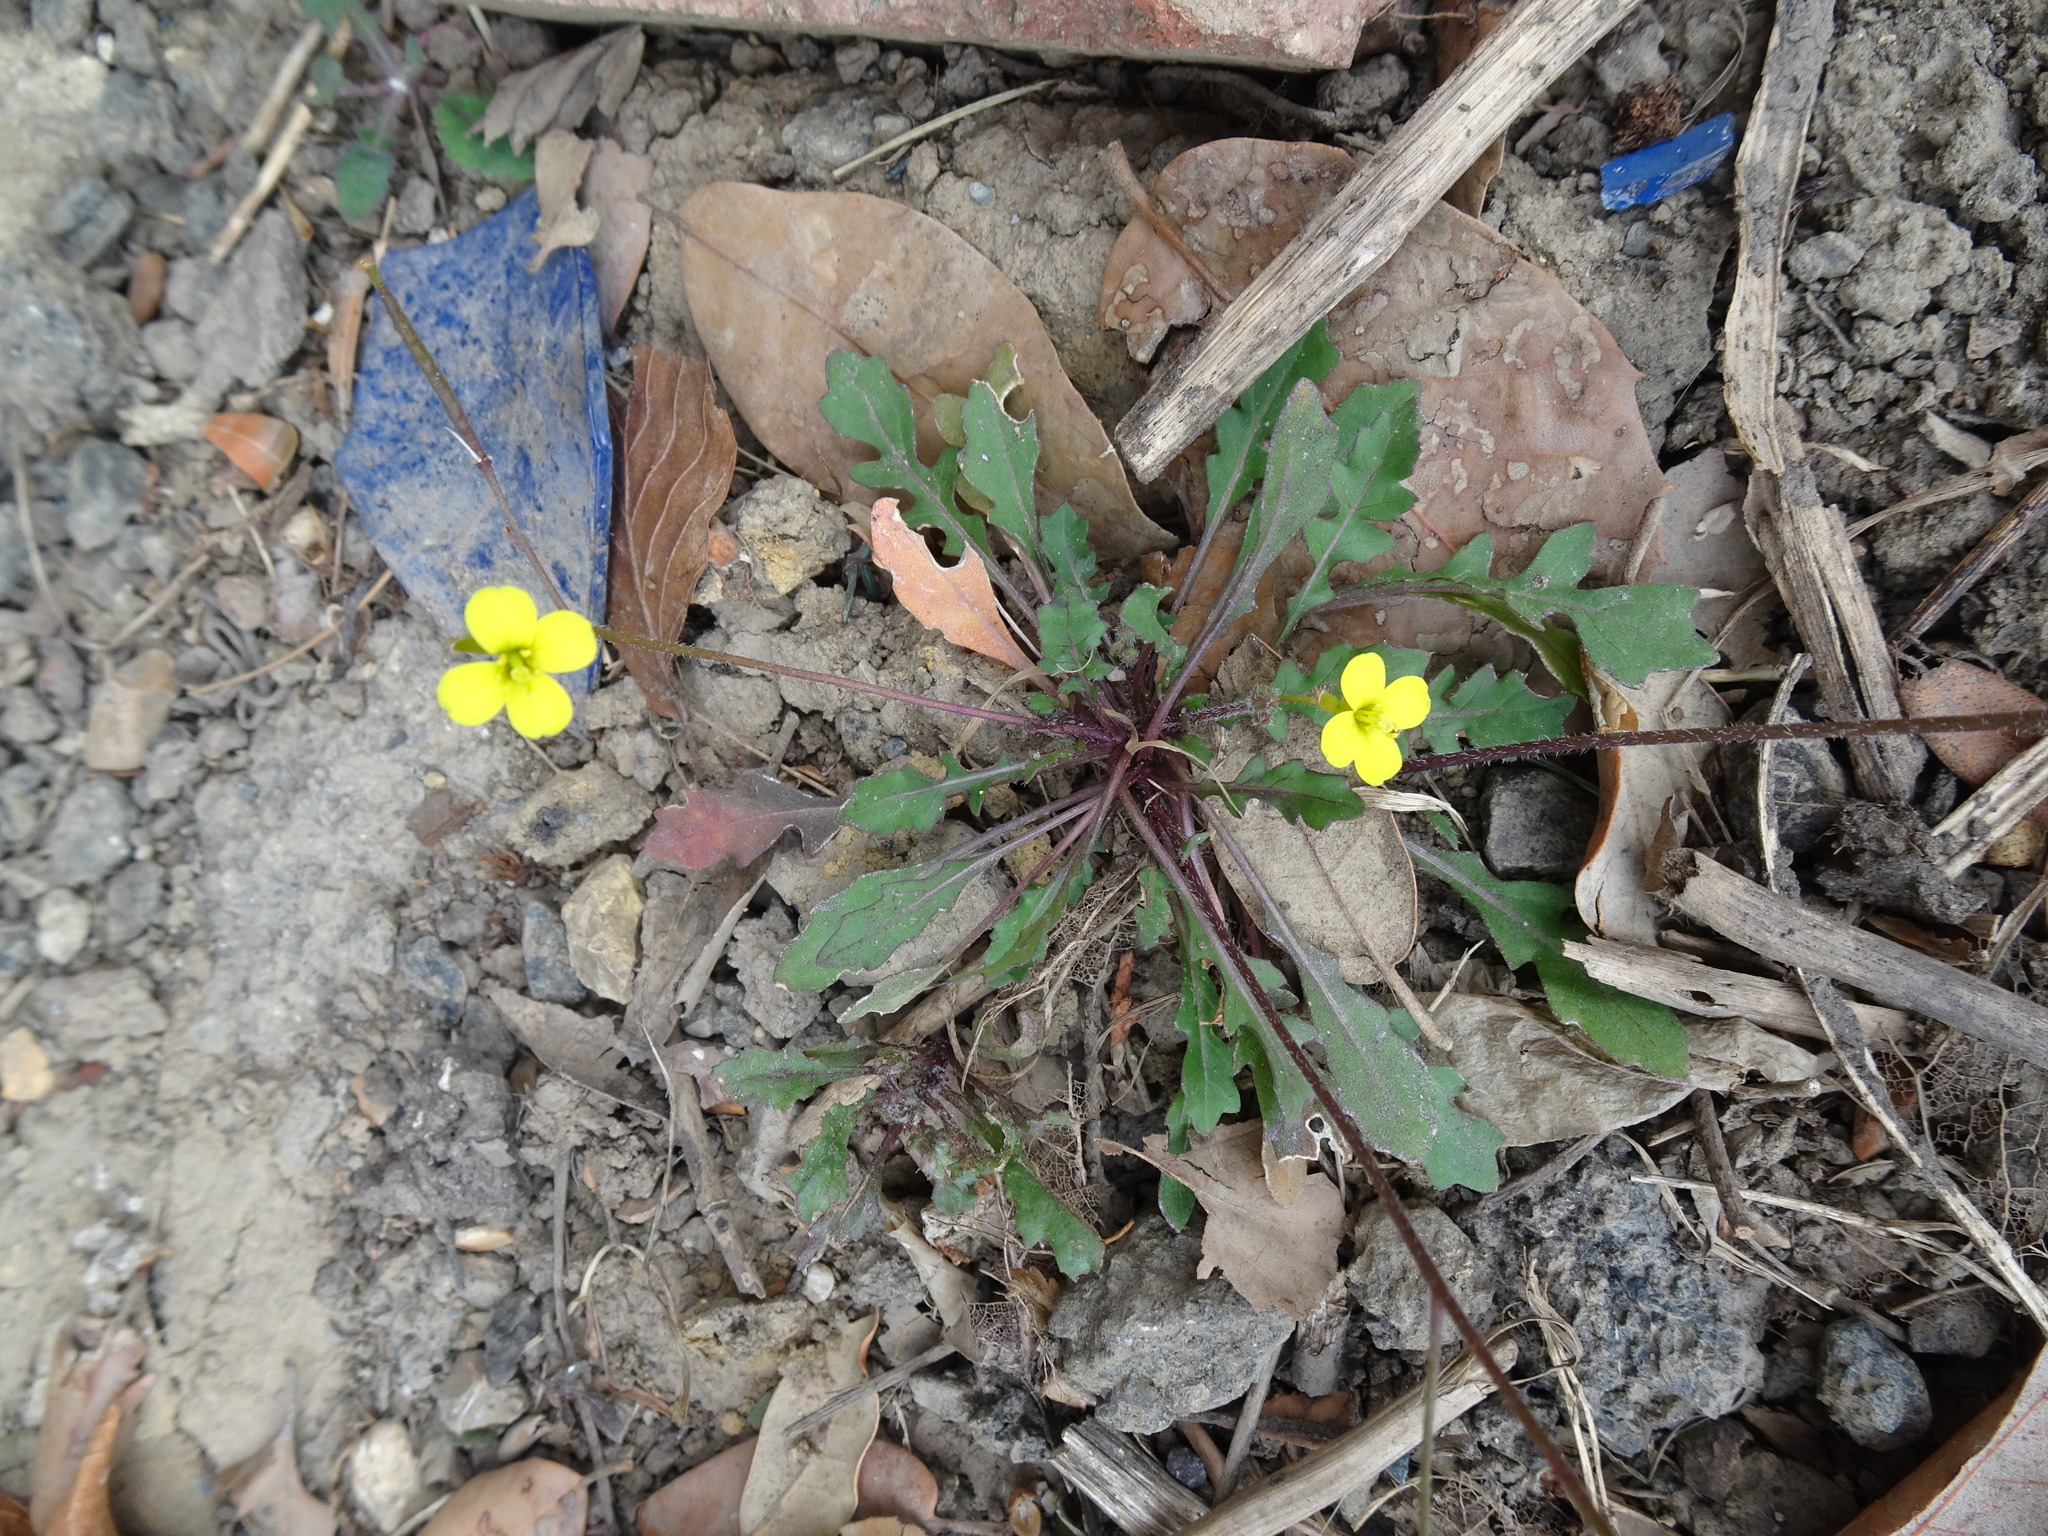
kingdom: Plantae
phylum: Tracheophyta
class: Magnoliopsida
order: Brassicales
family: Brassicaceae
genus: Diplotaxis
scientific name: Diplotaxis muralis
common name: Annual wall-rocket
